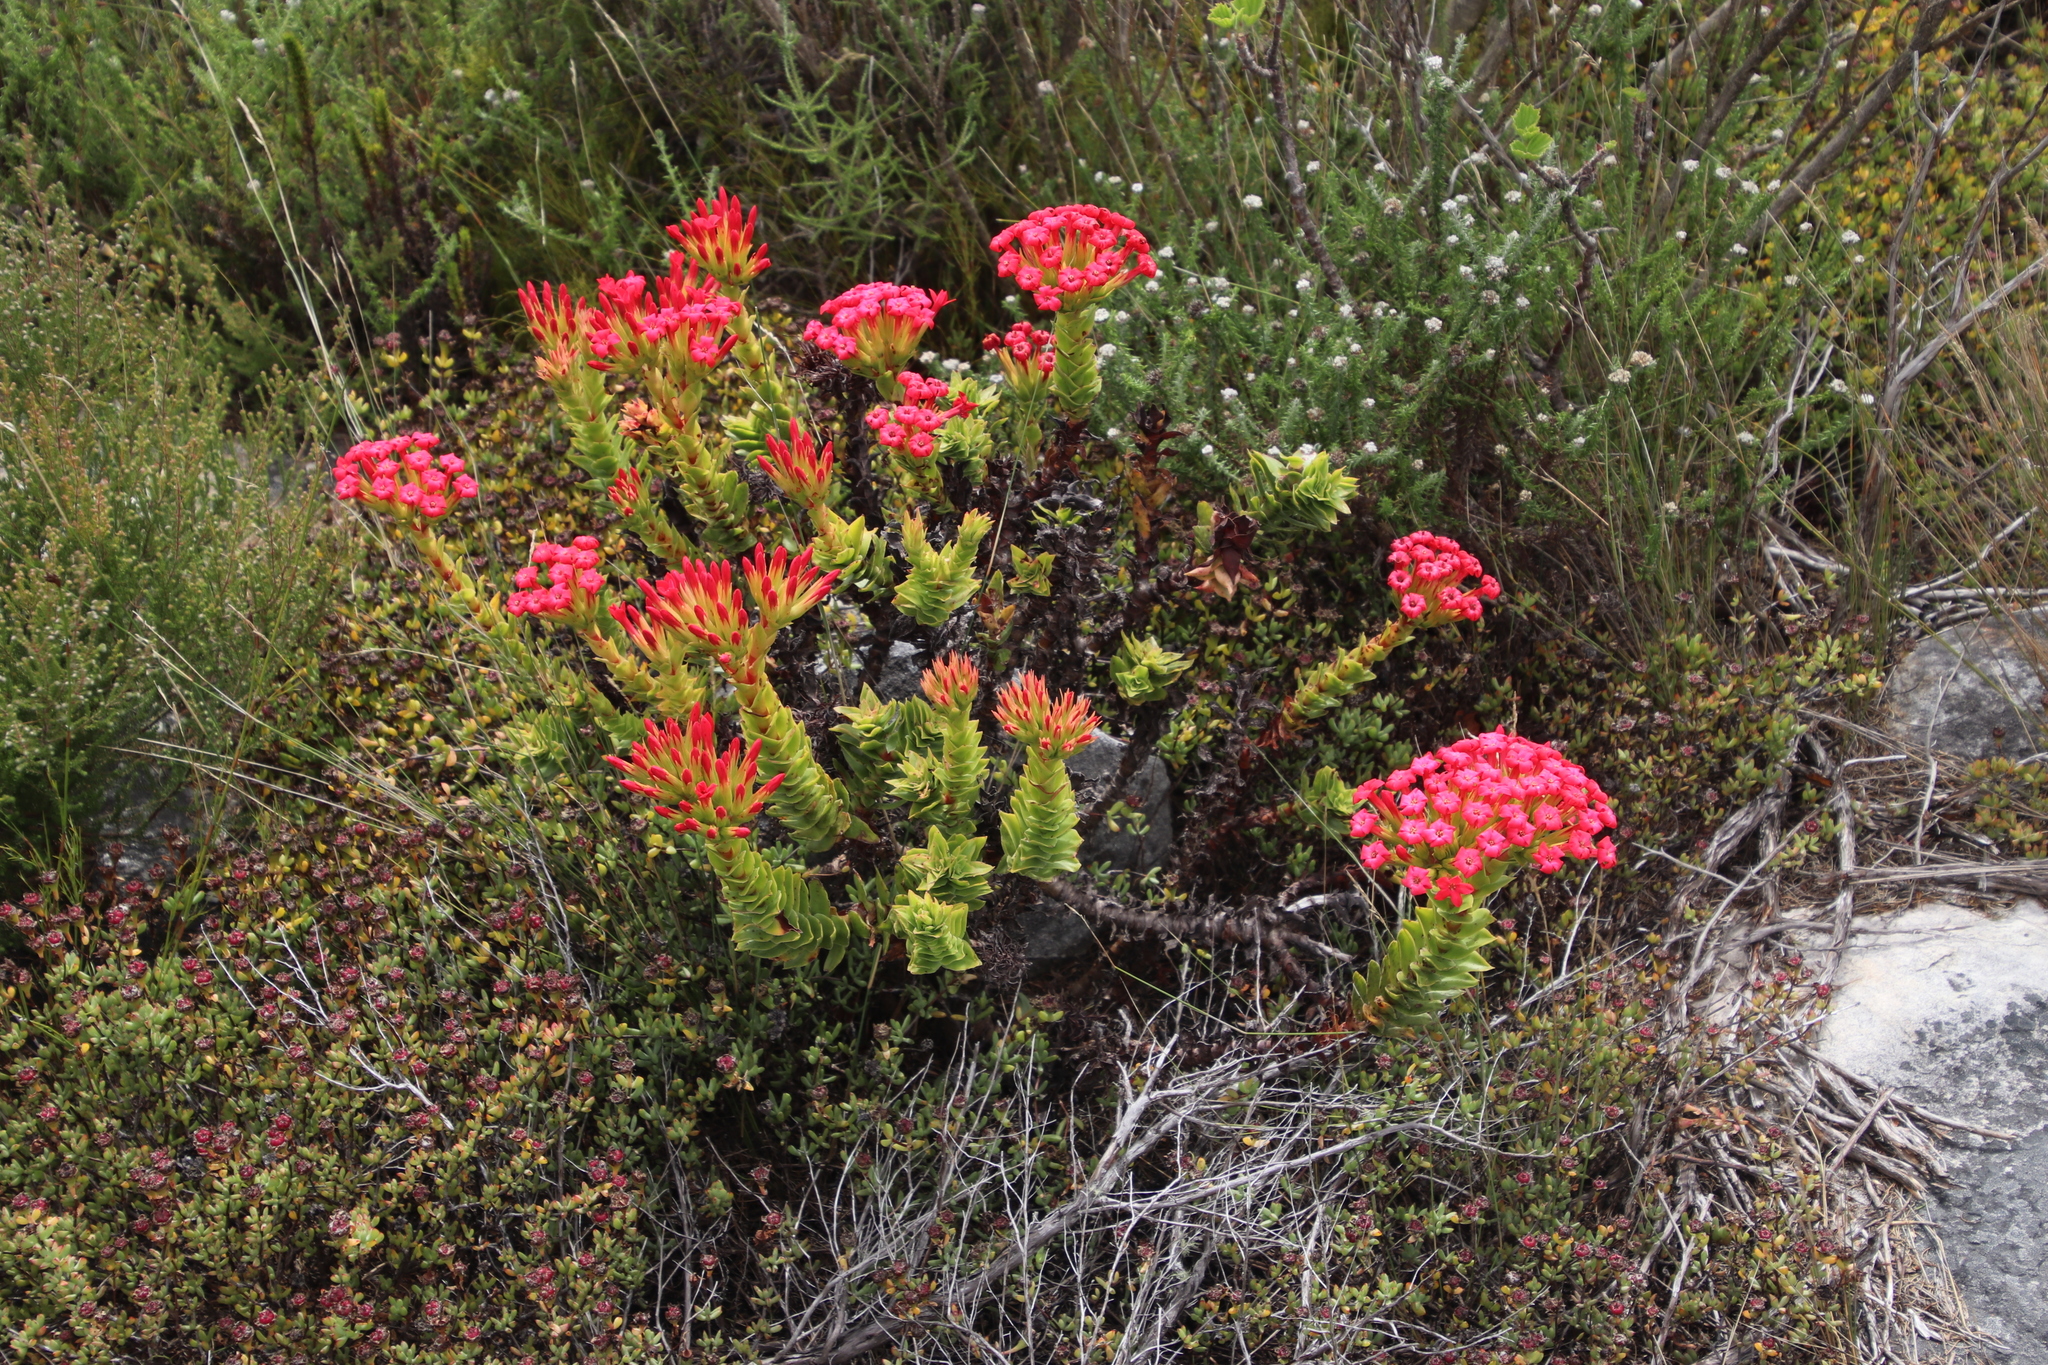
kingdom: Plantae
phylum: Tracheophyta
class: Magnoliopsida
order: Saxifragales
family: Crassulaceae
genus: Crassula
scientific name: Crassula coccinea
